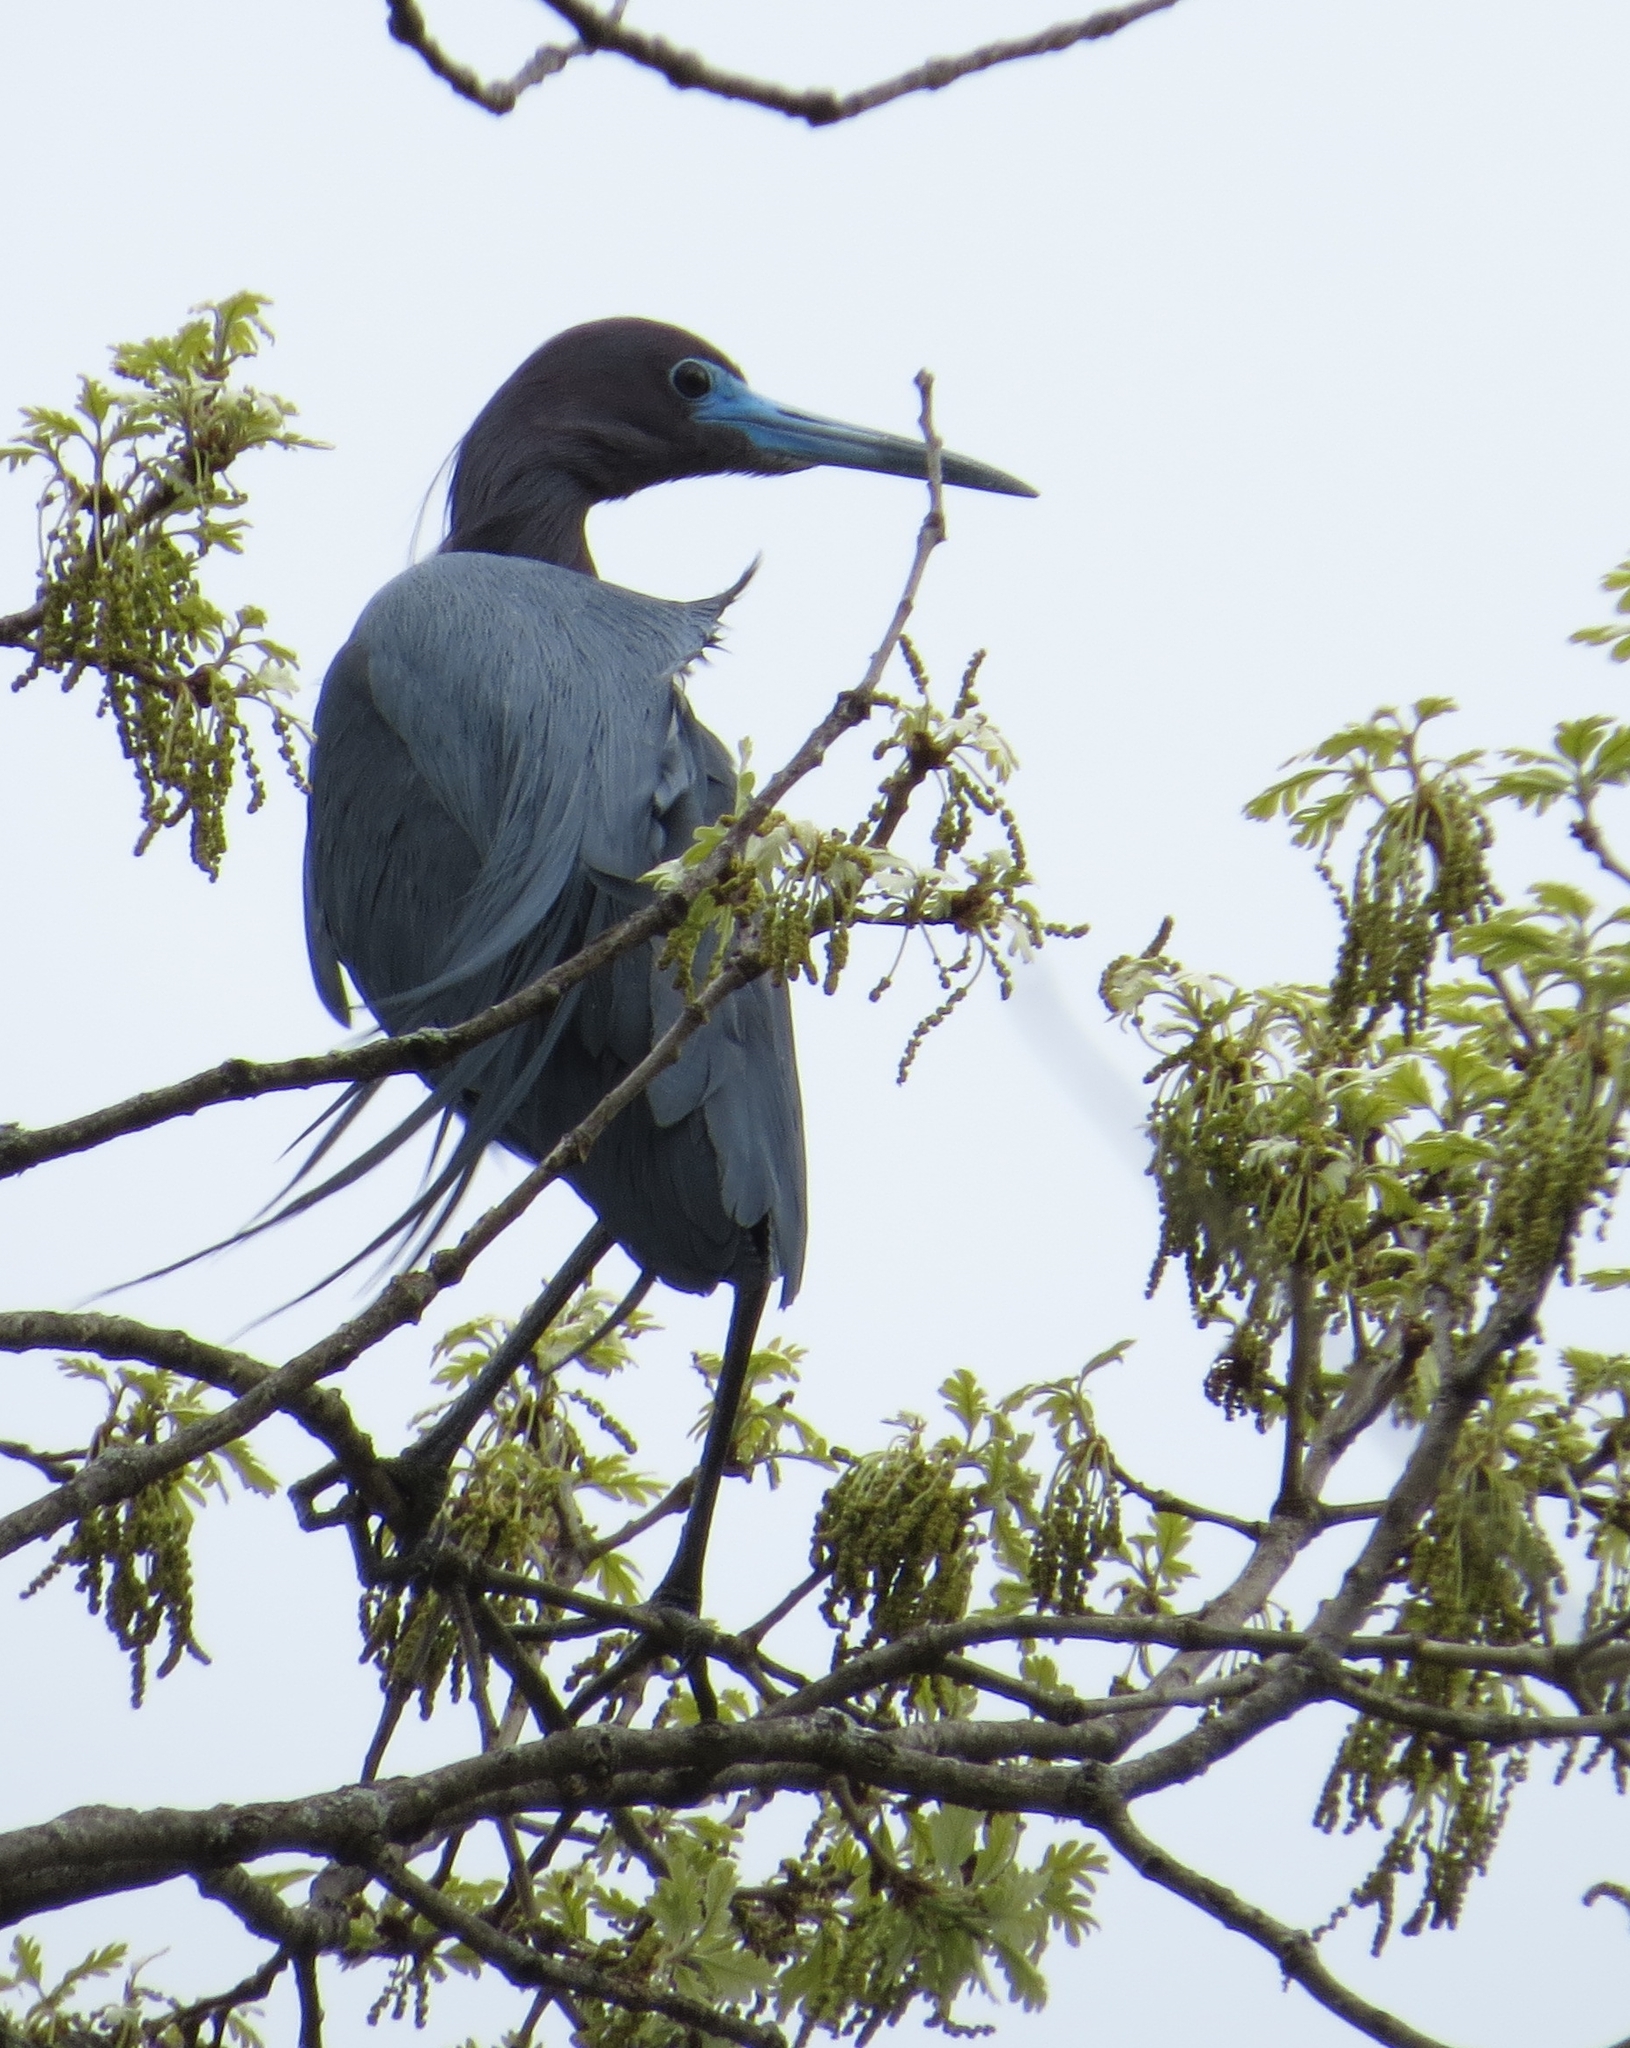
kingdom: Animalia
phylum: Chordata
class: Aves
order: Pelecaniformes
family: Ardeidae
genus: Egretta
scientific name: Egretta caerulea
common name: Little blue heron
